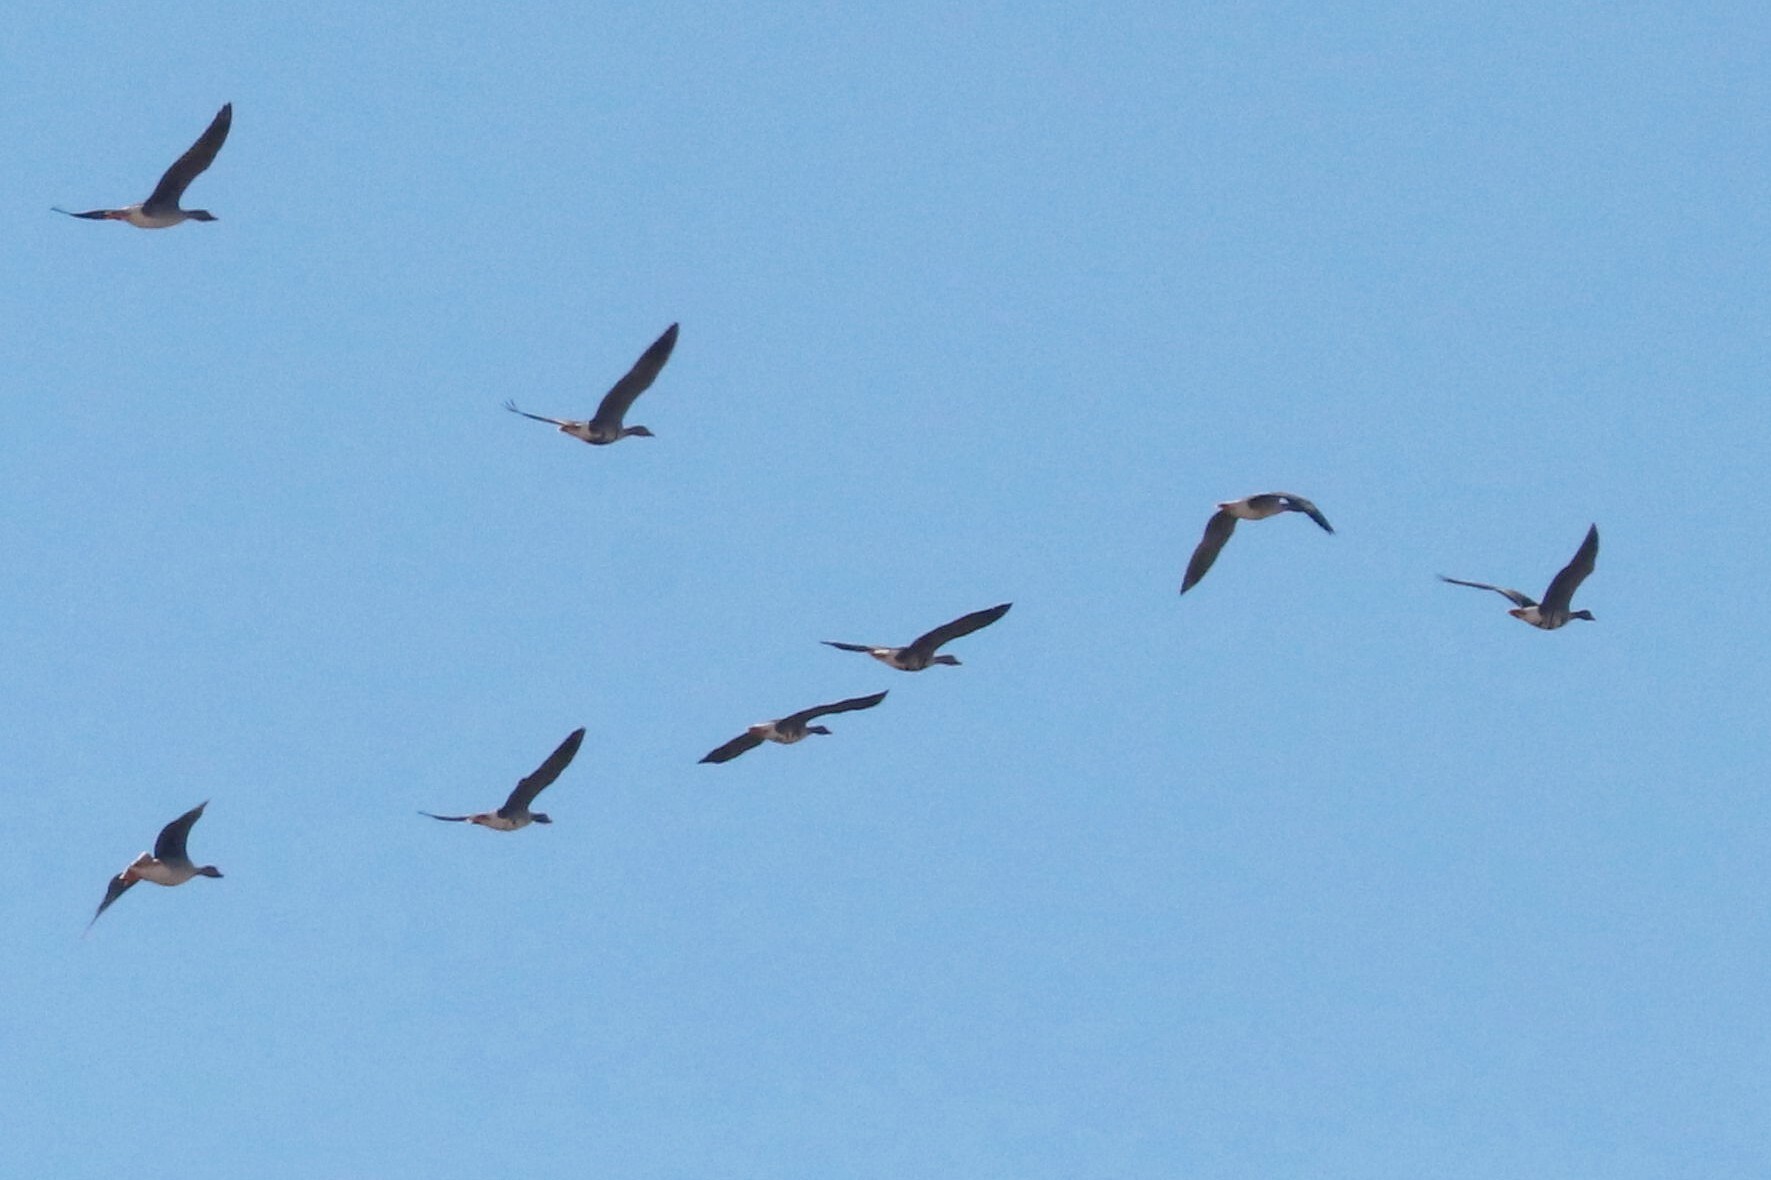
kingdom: Animalia
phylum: Chordata
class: Aves
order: Anseriformes
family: Anatidae
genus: Anser
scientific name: Anser albifrons
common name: Greater white-fronted goose
